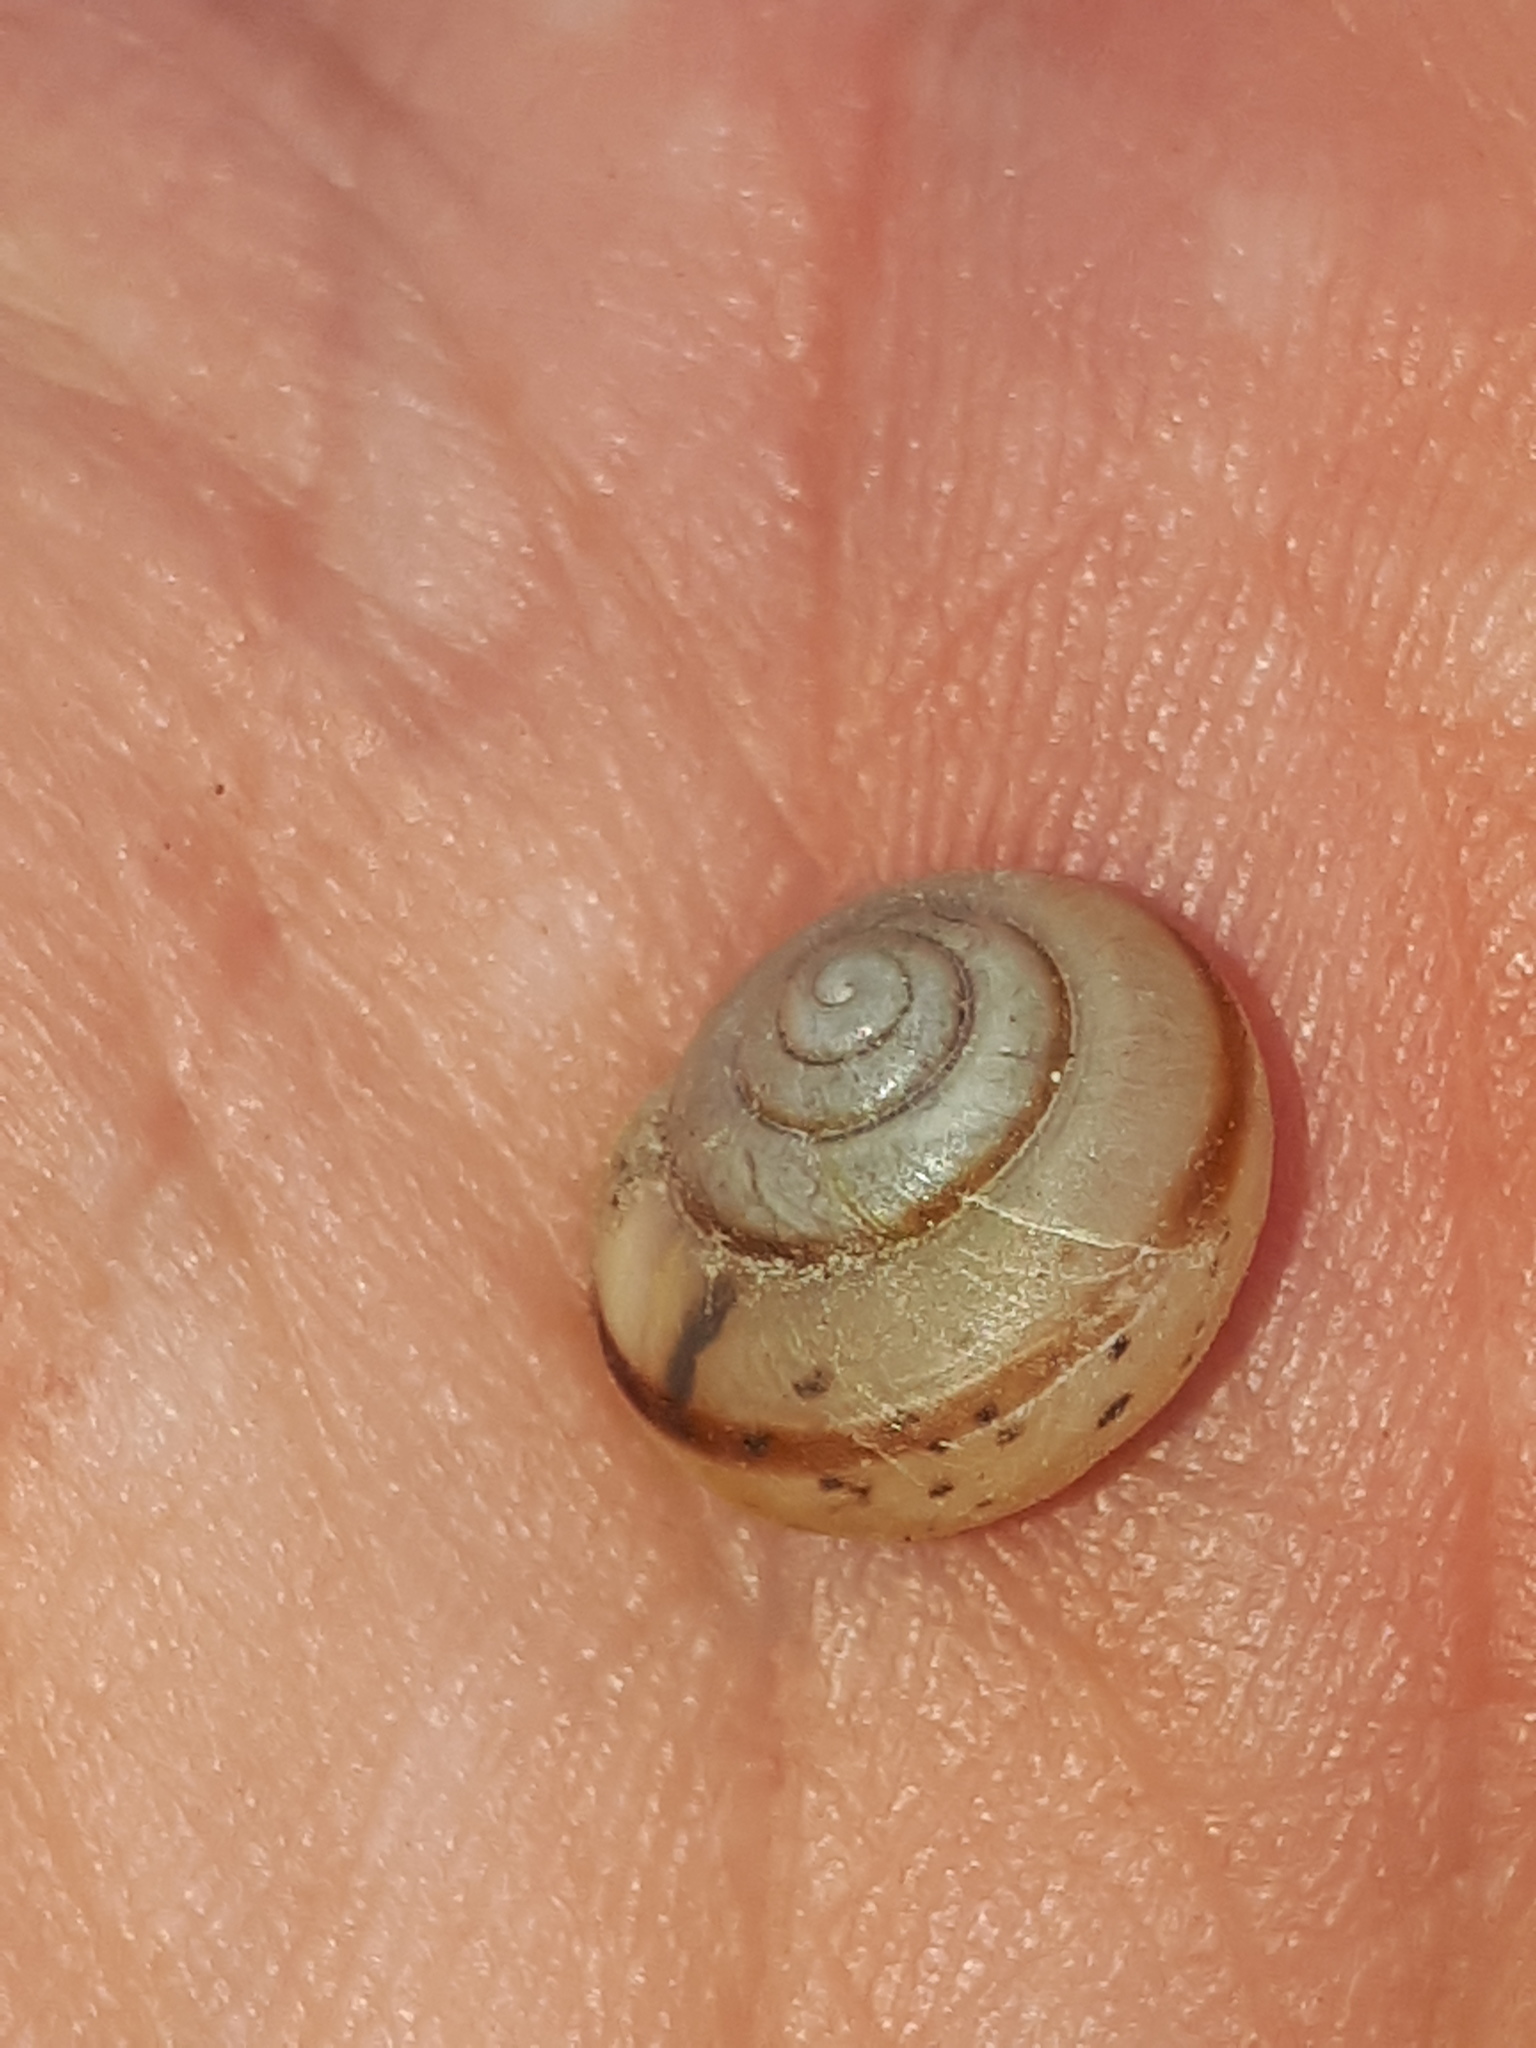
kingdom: Animalia
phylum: Mollusca
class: Gastropoda
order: Stylommatophora
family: Camaenidae
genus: Fruticicola
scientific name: Fruticicola fruticum
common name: Bush snail
